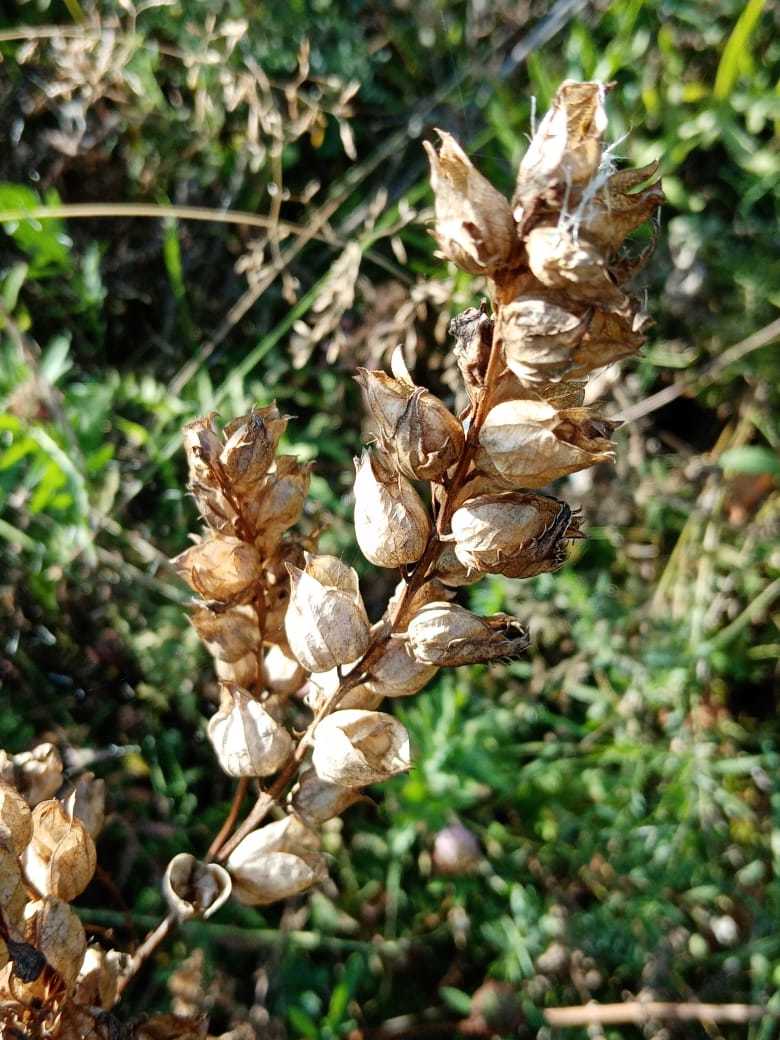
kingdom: Plantae
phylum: Tracheophyta
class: Magnoliopsida
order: Lamiales
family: Orobanchaceae
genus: Rhinanthus
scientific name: Rhinanthus serotinus
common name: Late-flowering yellow rattle
